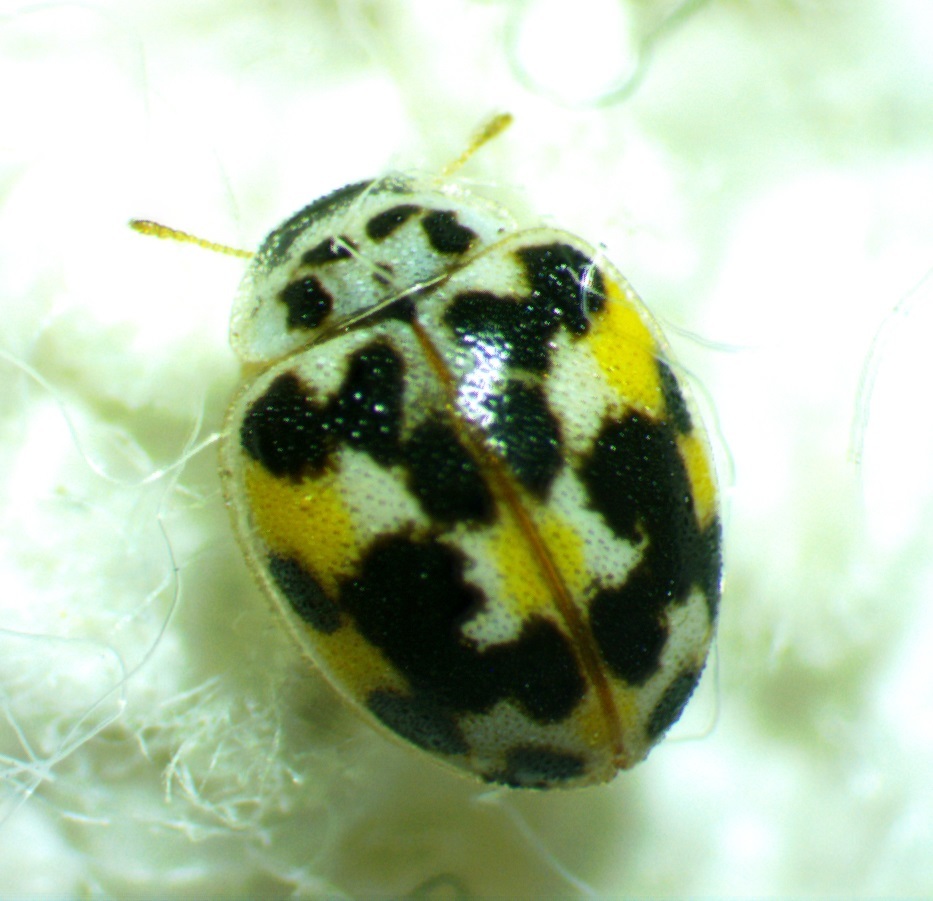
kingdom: Animalia
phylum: Arthropoda
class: Insecta
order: Coleoptera
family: Coccinellidae
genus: Psyllobora
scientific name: Psyllobora vigintimaculata
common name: Ladybird beetle
